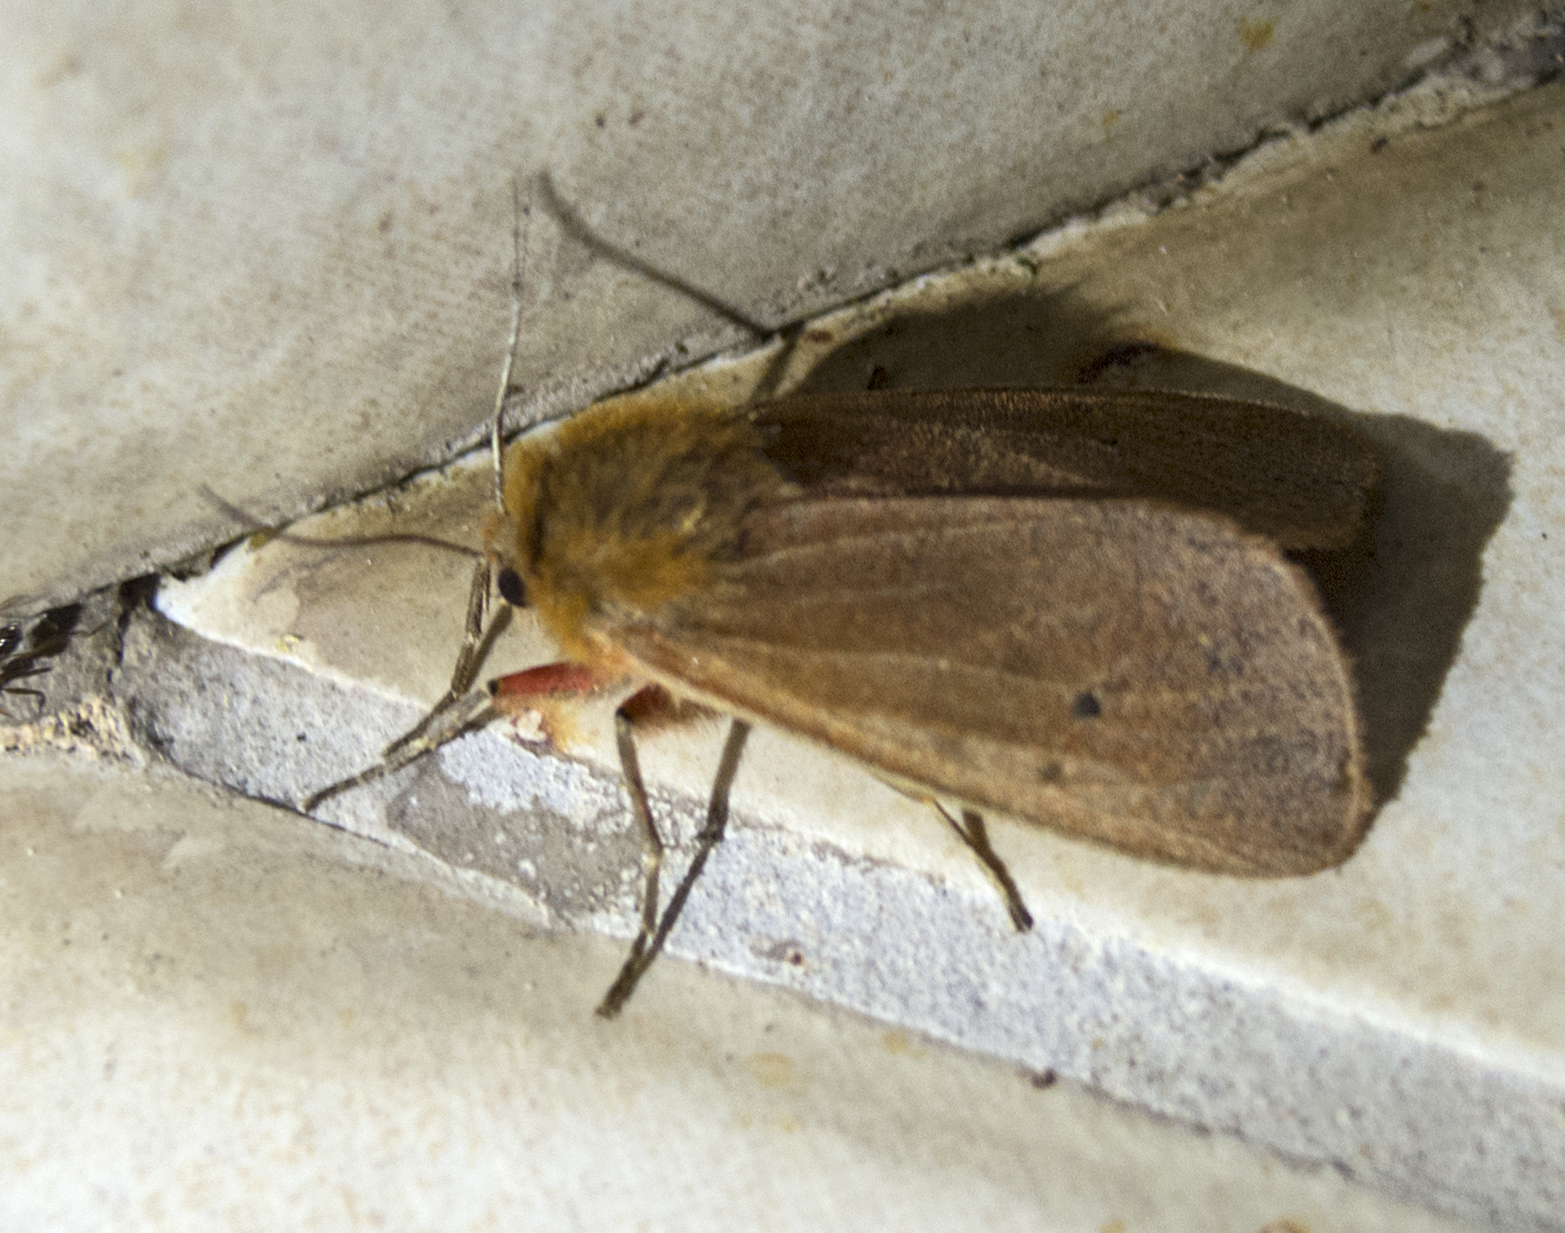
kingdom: Animalia
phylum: Arthropoda
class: Insecta
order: Lepidoptera
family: Erebidae
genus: Phragmatobia
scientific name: Phragmatobia fuliginosa
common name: Ruby tiger
